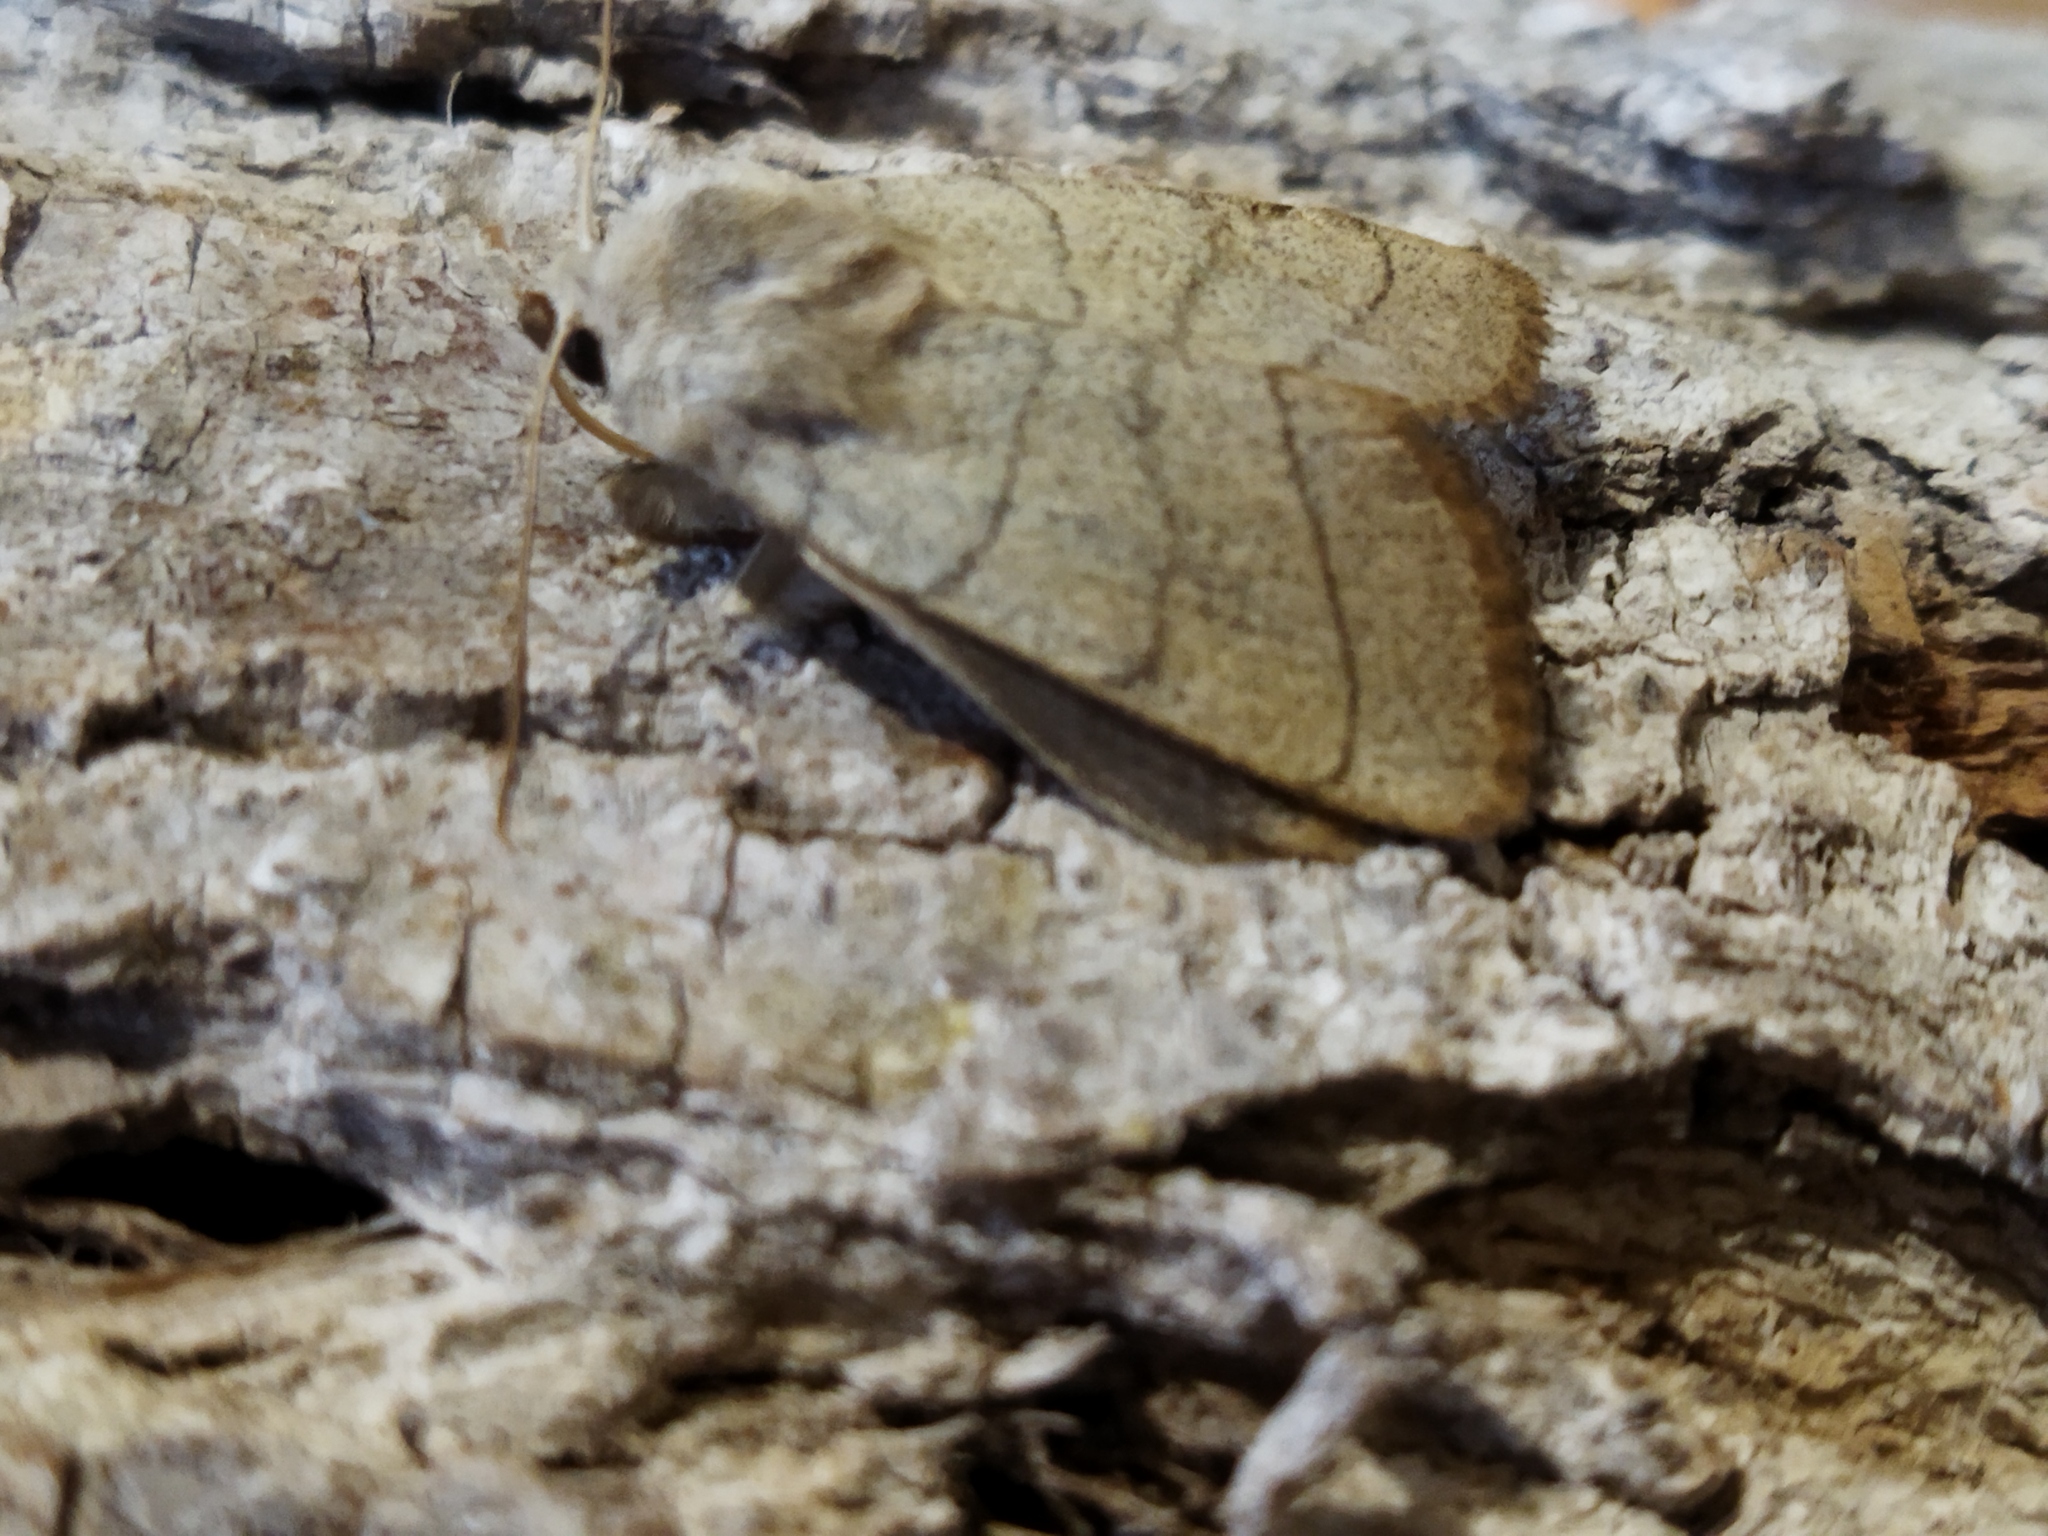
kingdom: Animalia
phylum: Arthropoda
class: Insecta
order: Lepidoptera
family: Noctuidae
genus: Charanyca
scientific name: Charanyca trigrammica
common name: Treble lines
